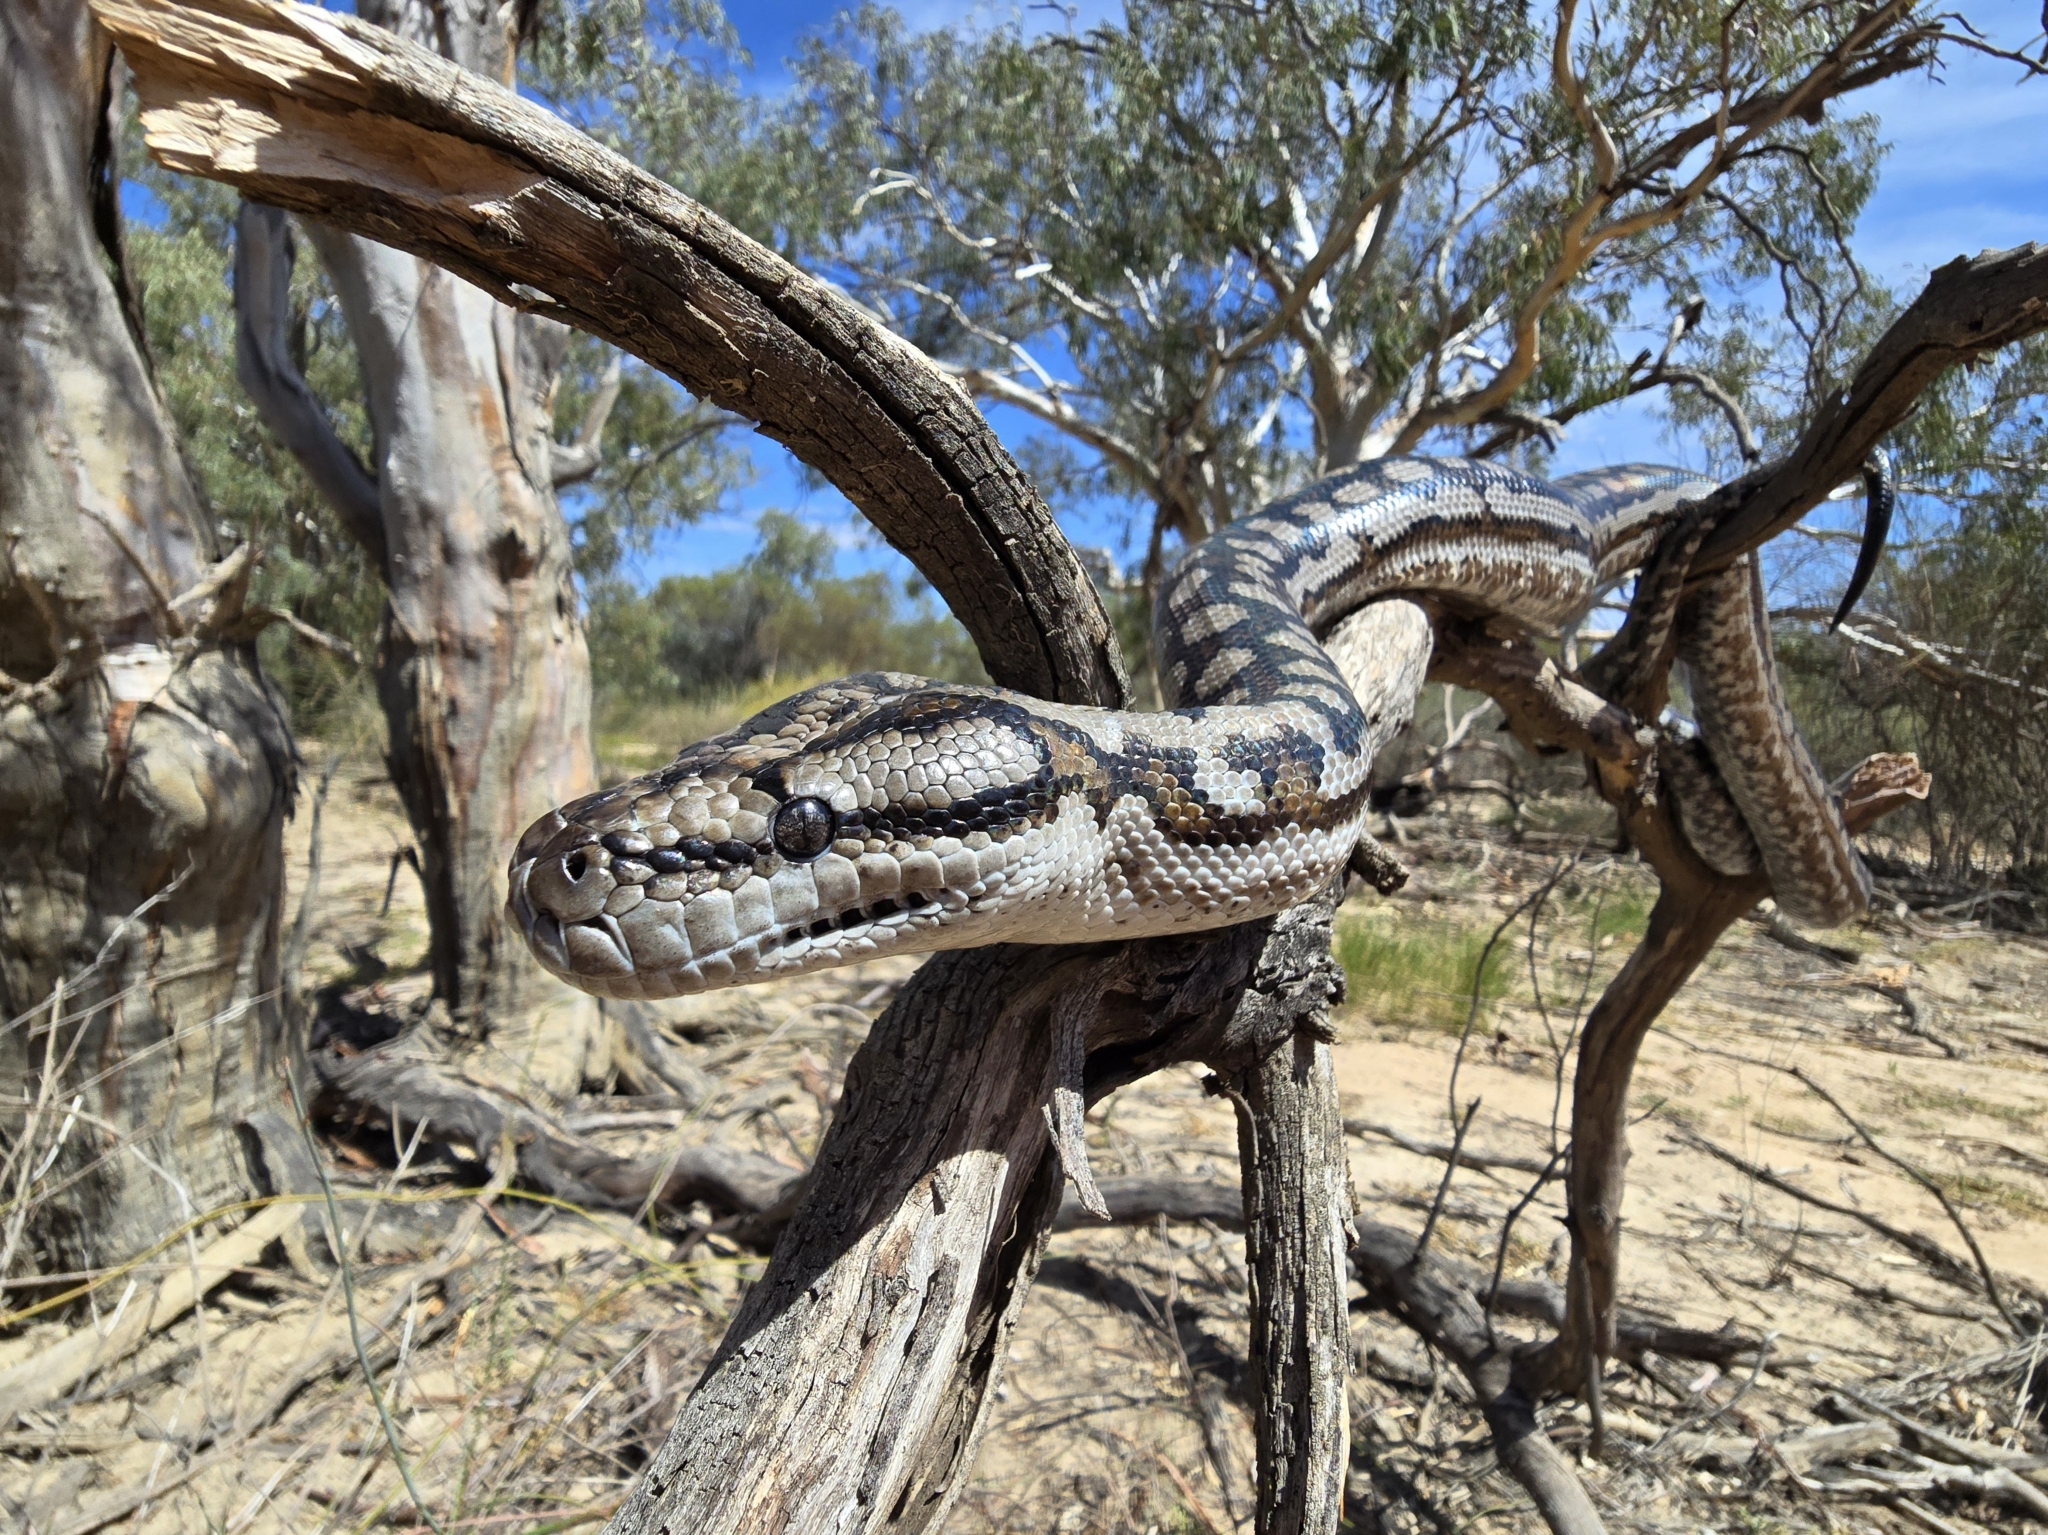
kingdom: Animalia
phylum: Chordata
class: Squamata
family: Pythonidae
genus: Morelia
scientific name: Morelia spilota
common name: Carpet python
